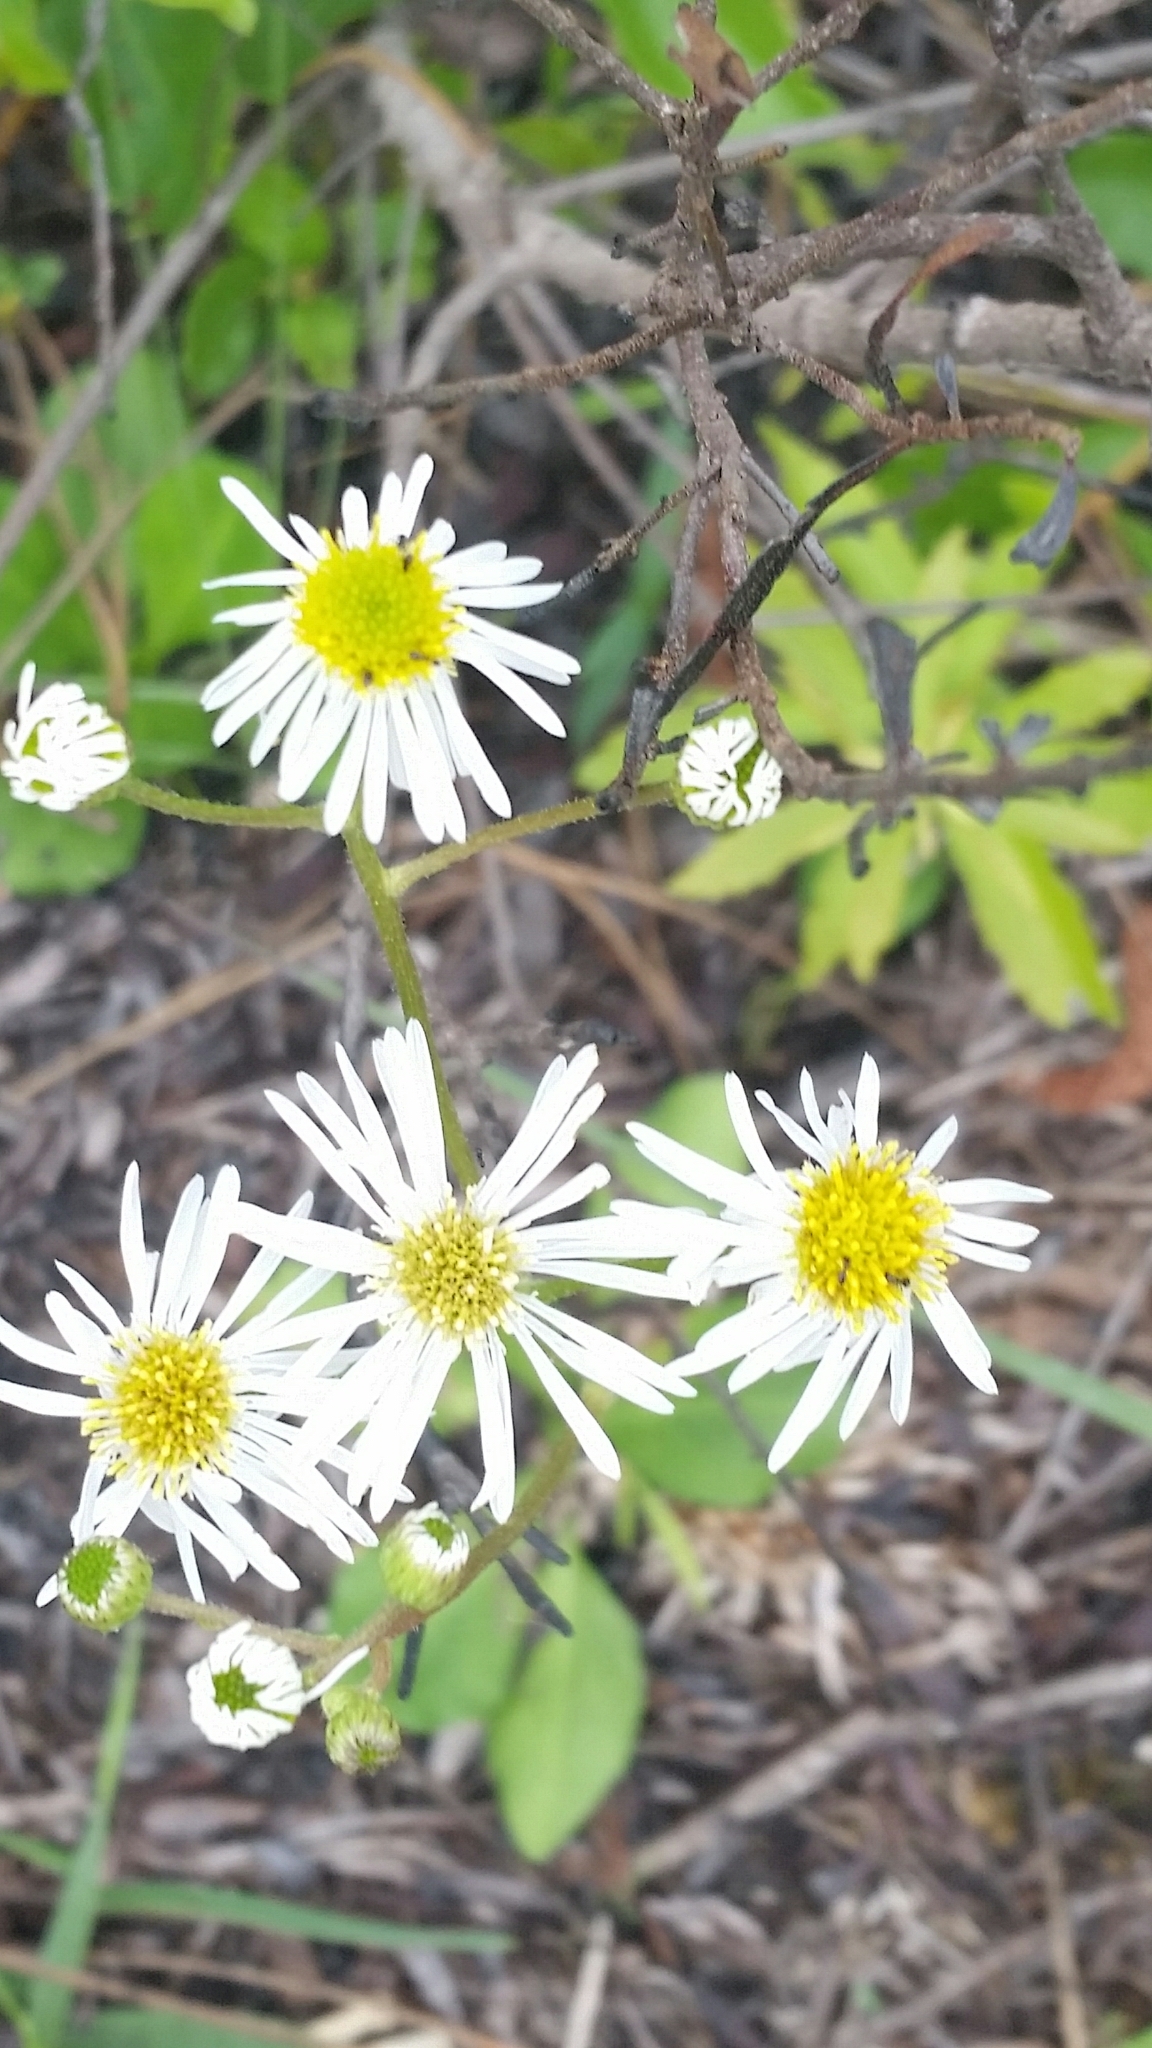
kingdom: Plantae
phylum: Tracheophyta
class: Magnoliopsida
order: Asterales
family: Asteraceae
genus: Erigeron
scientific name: Erigeron vernus
